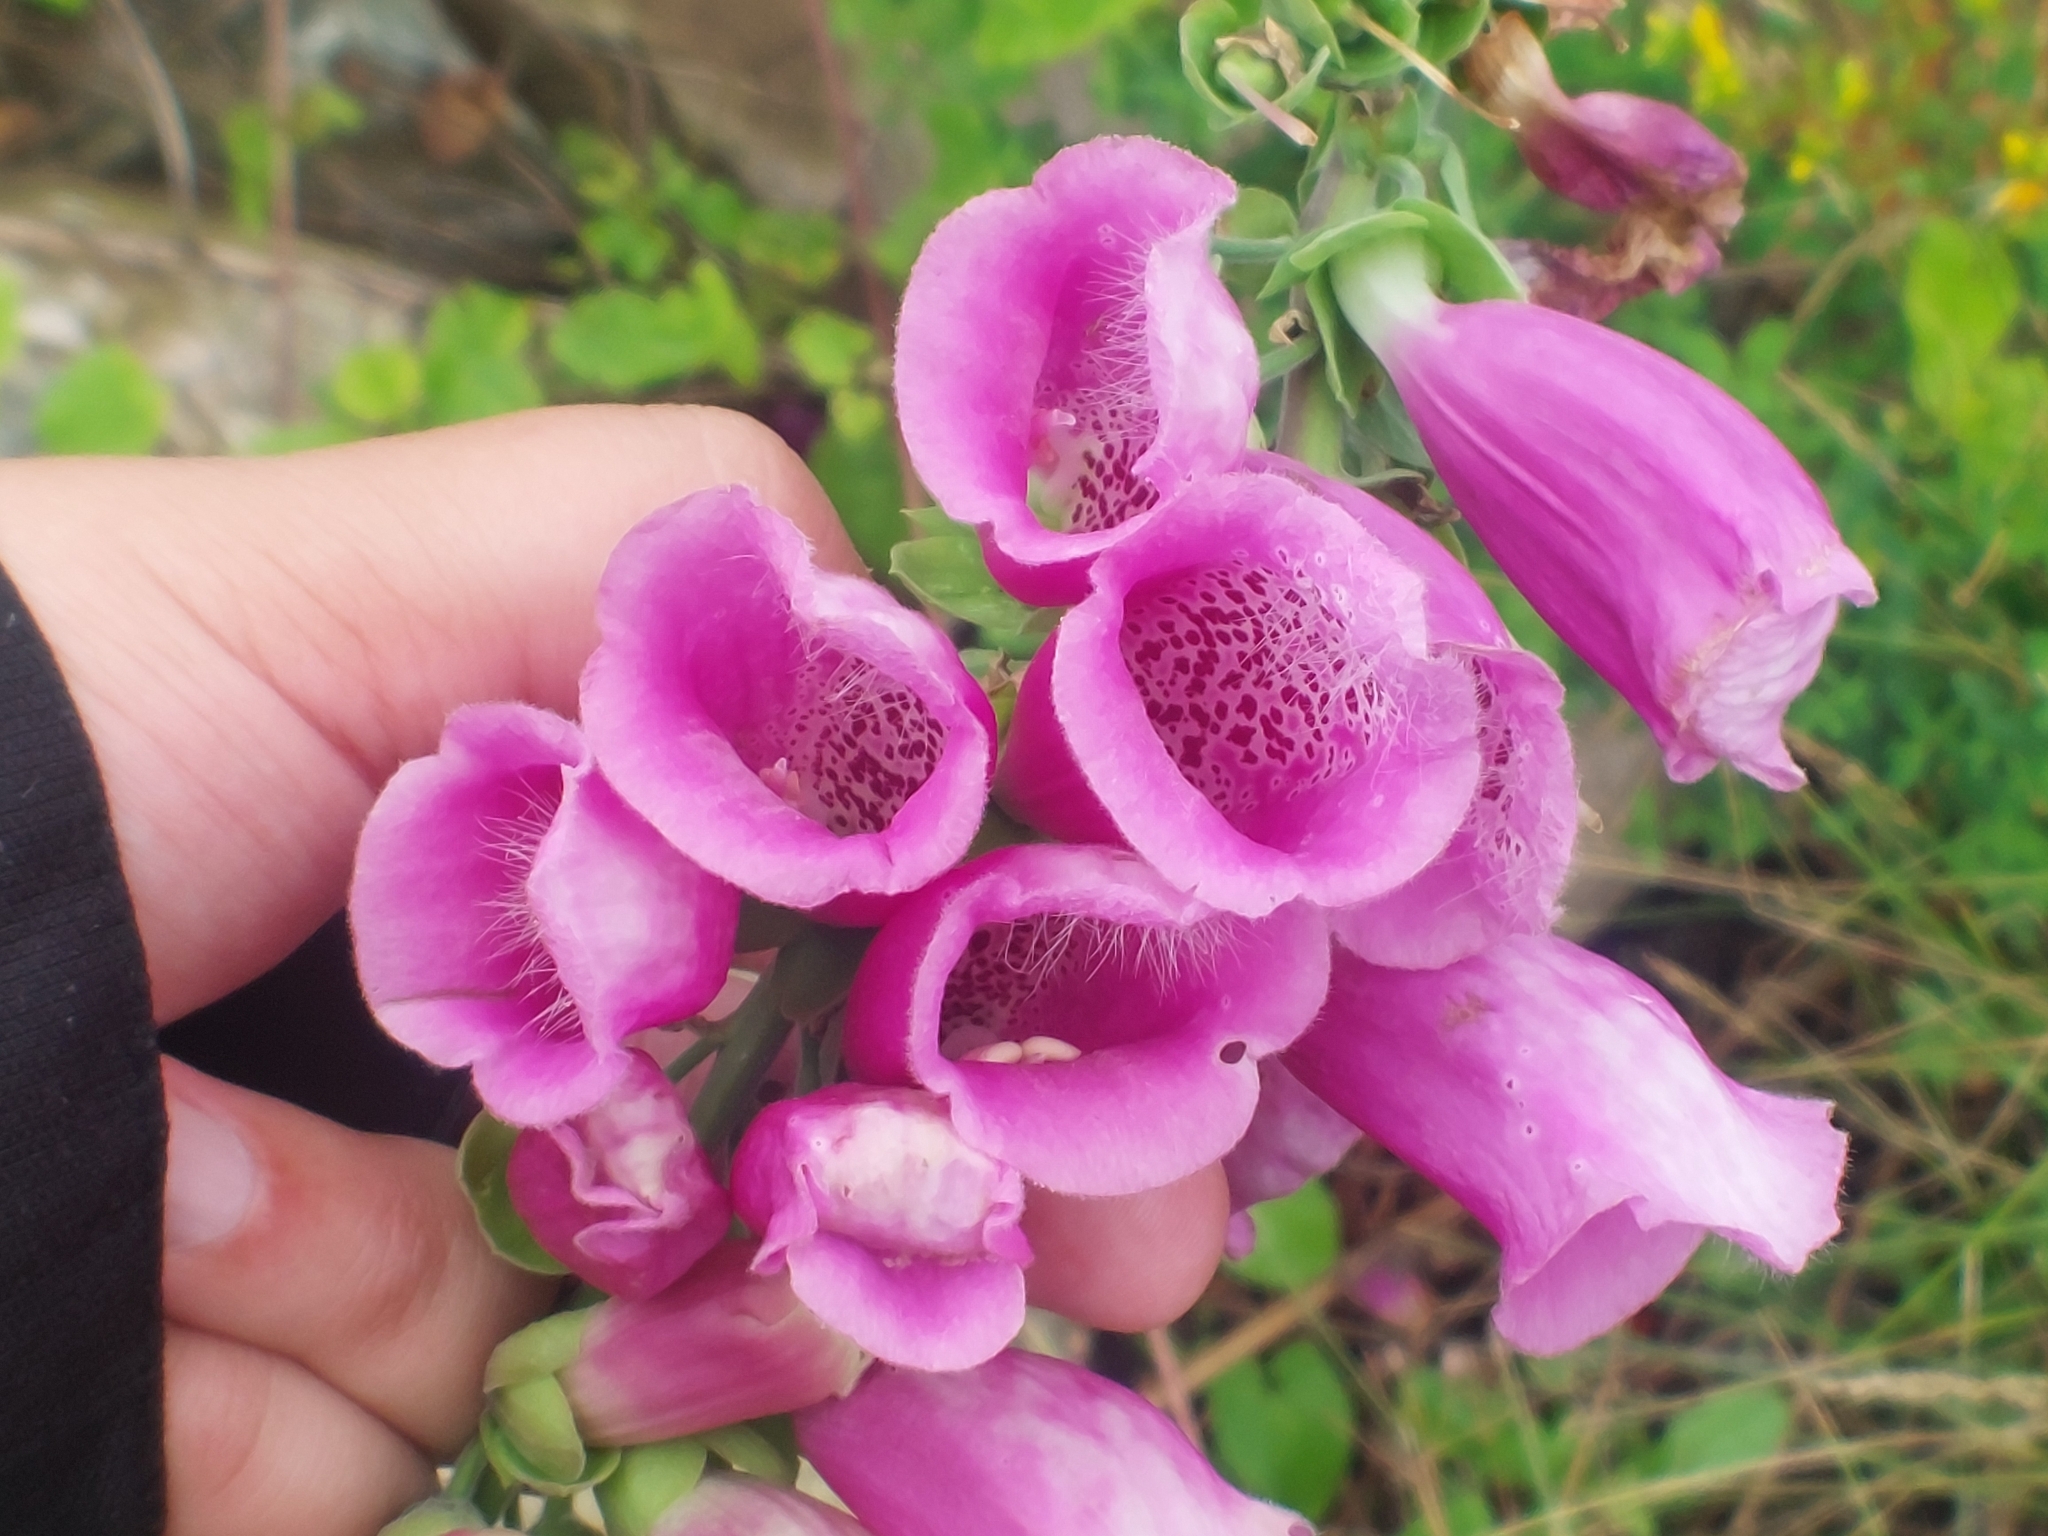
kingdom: Plantae
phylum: Tracheophyta
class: Magnoliopsida
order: Lamiales
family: Plantaginaceae
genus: Digitalis
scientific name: Digitalis purpurea
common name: Foxglove
